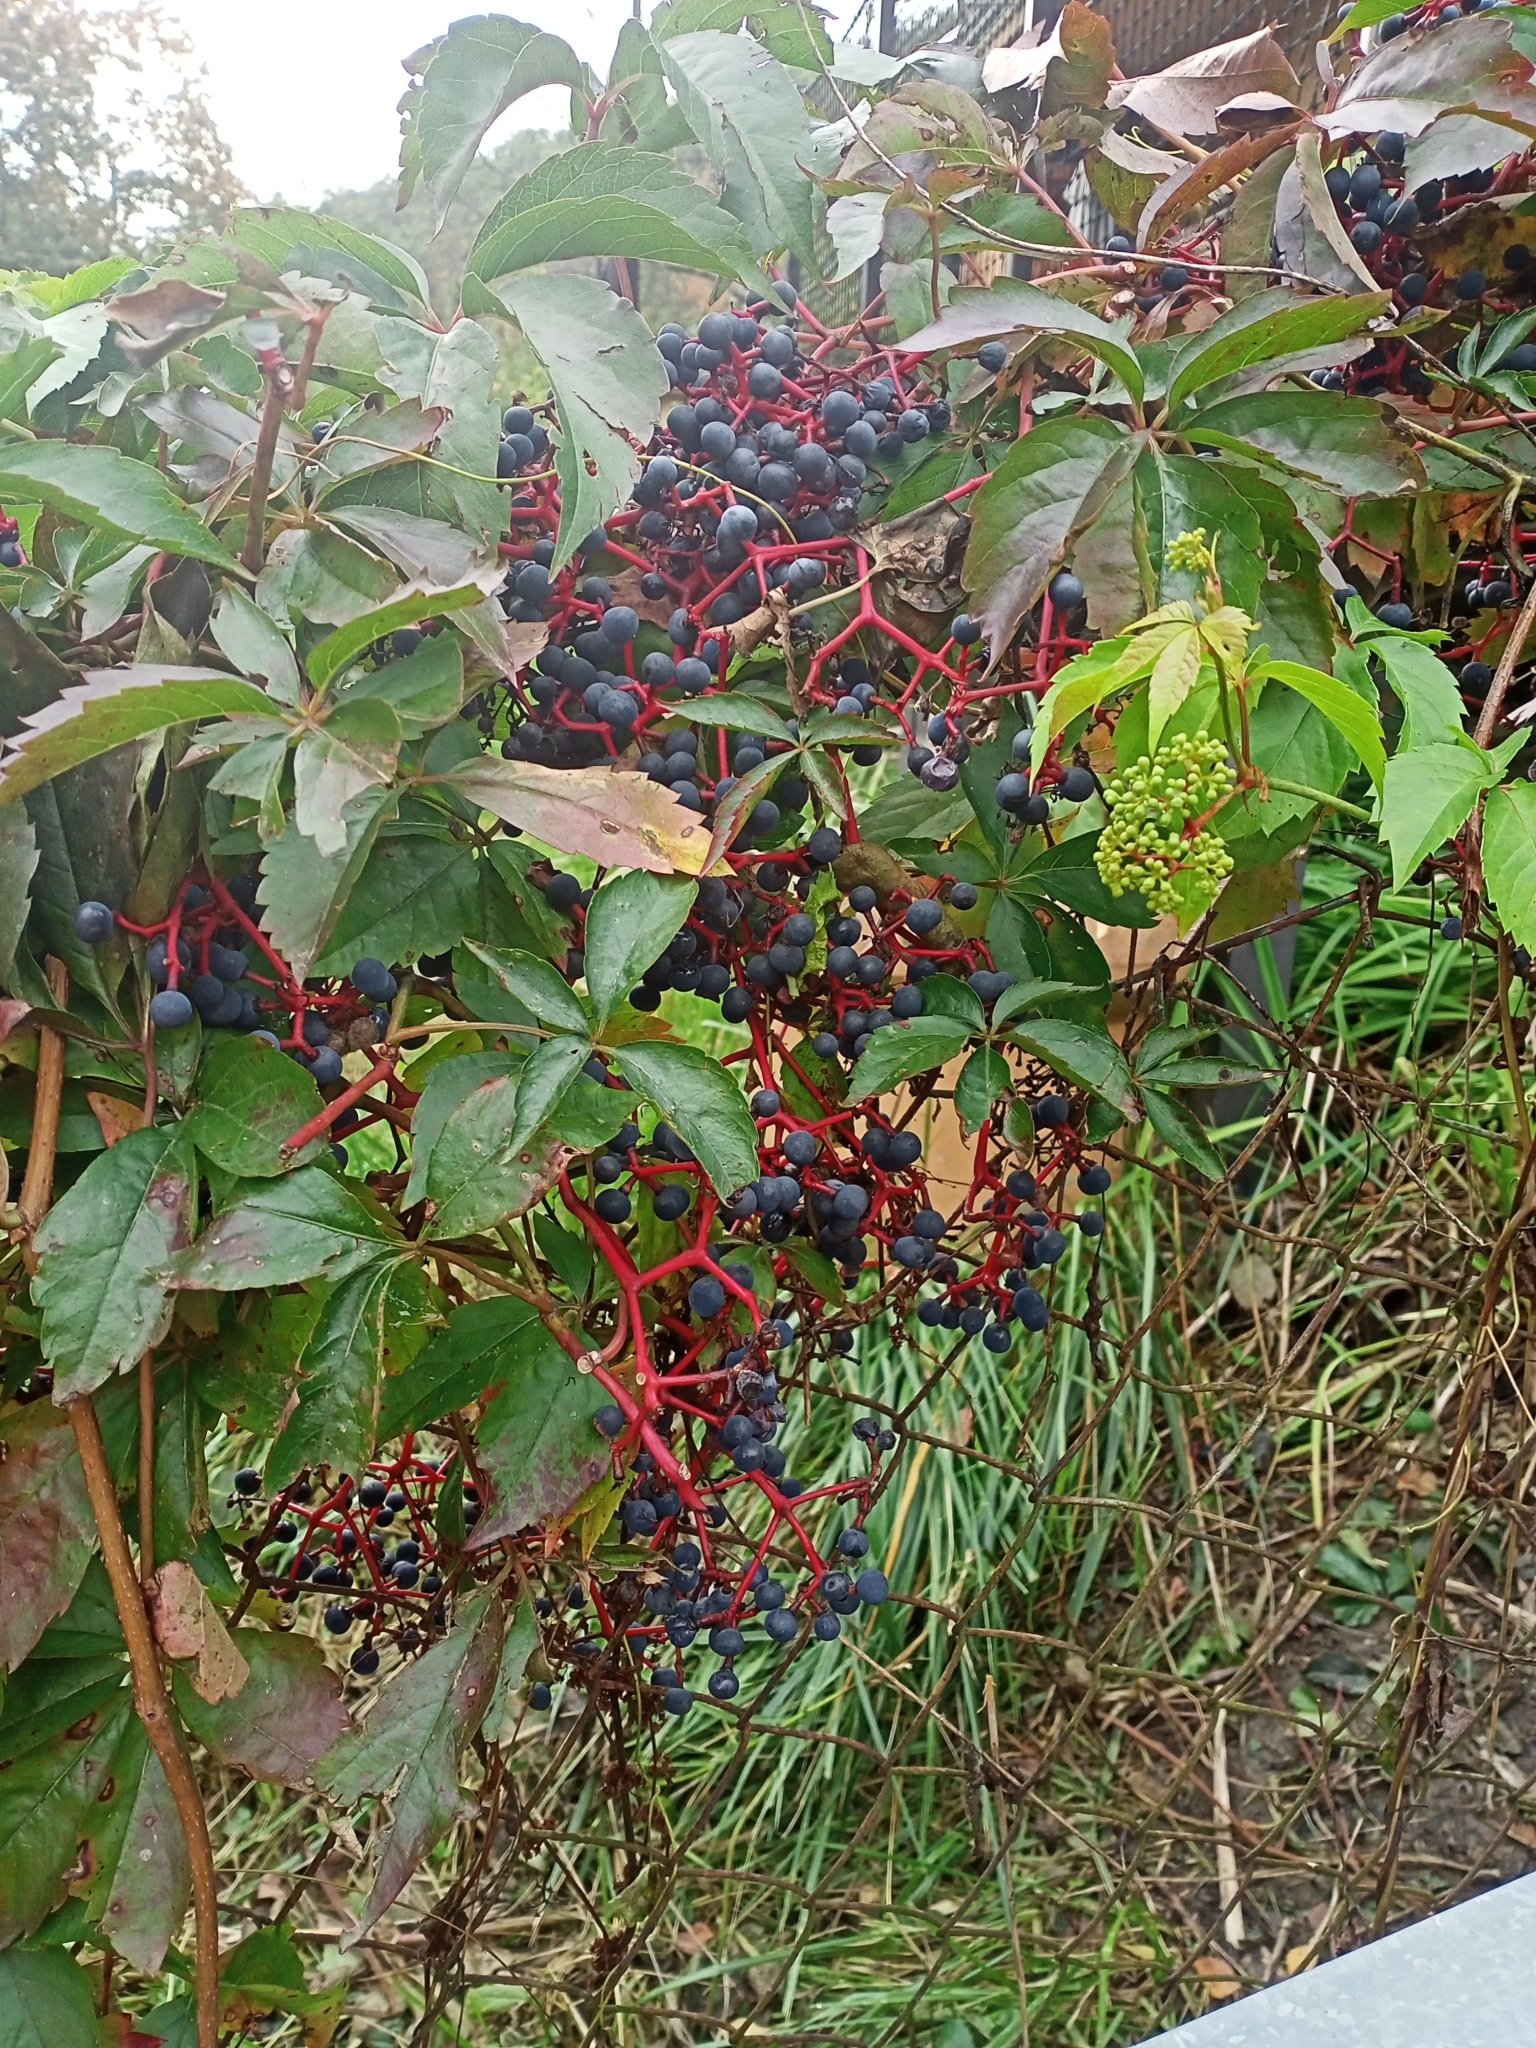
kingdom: Plantae
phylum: Tracheophyta
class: Magnoliopsida
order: Vitales
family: Vitaceae
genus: Parthenocissus
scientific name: Parthenocissus quinquefolia
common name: Virginia-creeper
